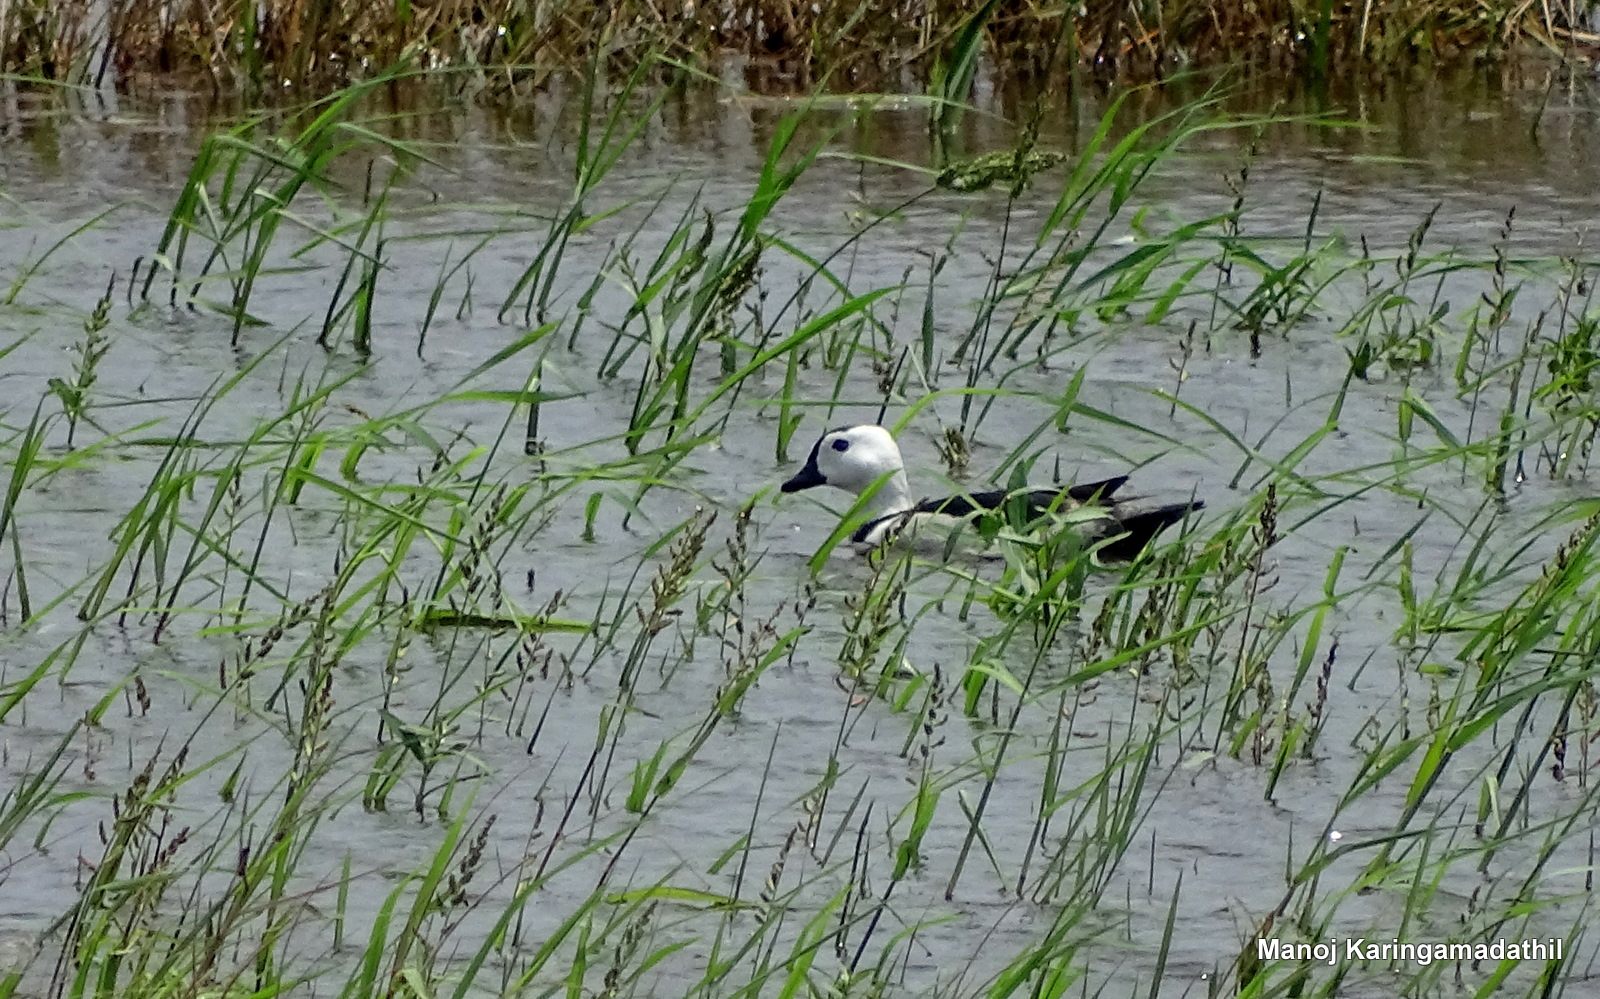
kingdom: Animalia
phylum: Chordata
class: Aves
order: Anseriformes
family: Anatidae
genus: Nettapus
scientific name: Nettapus coromandelianus
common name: Cotton pygmy-goose
